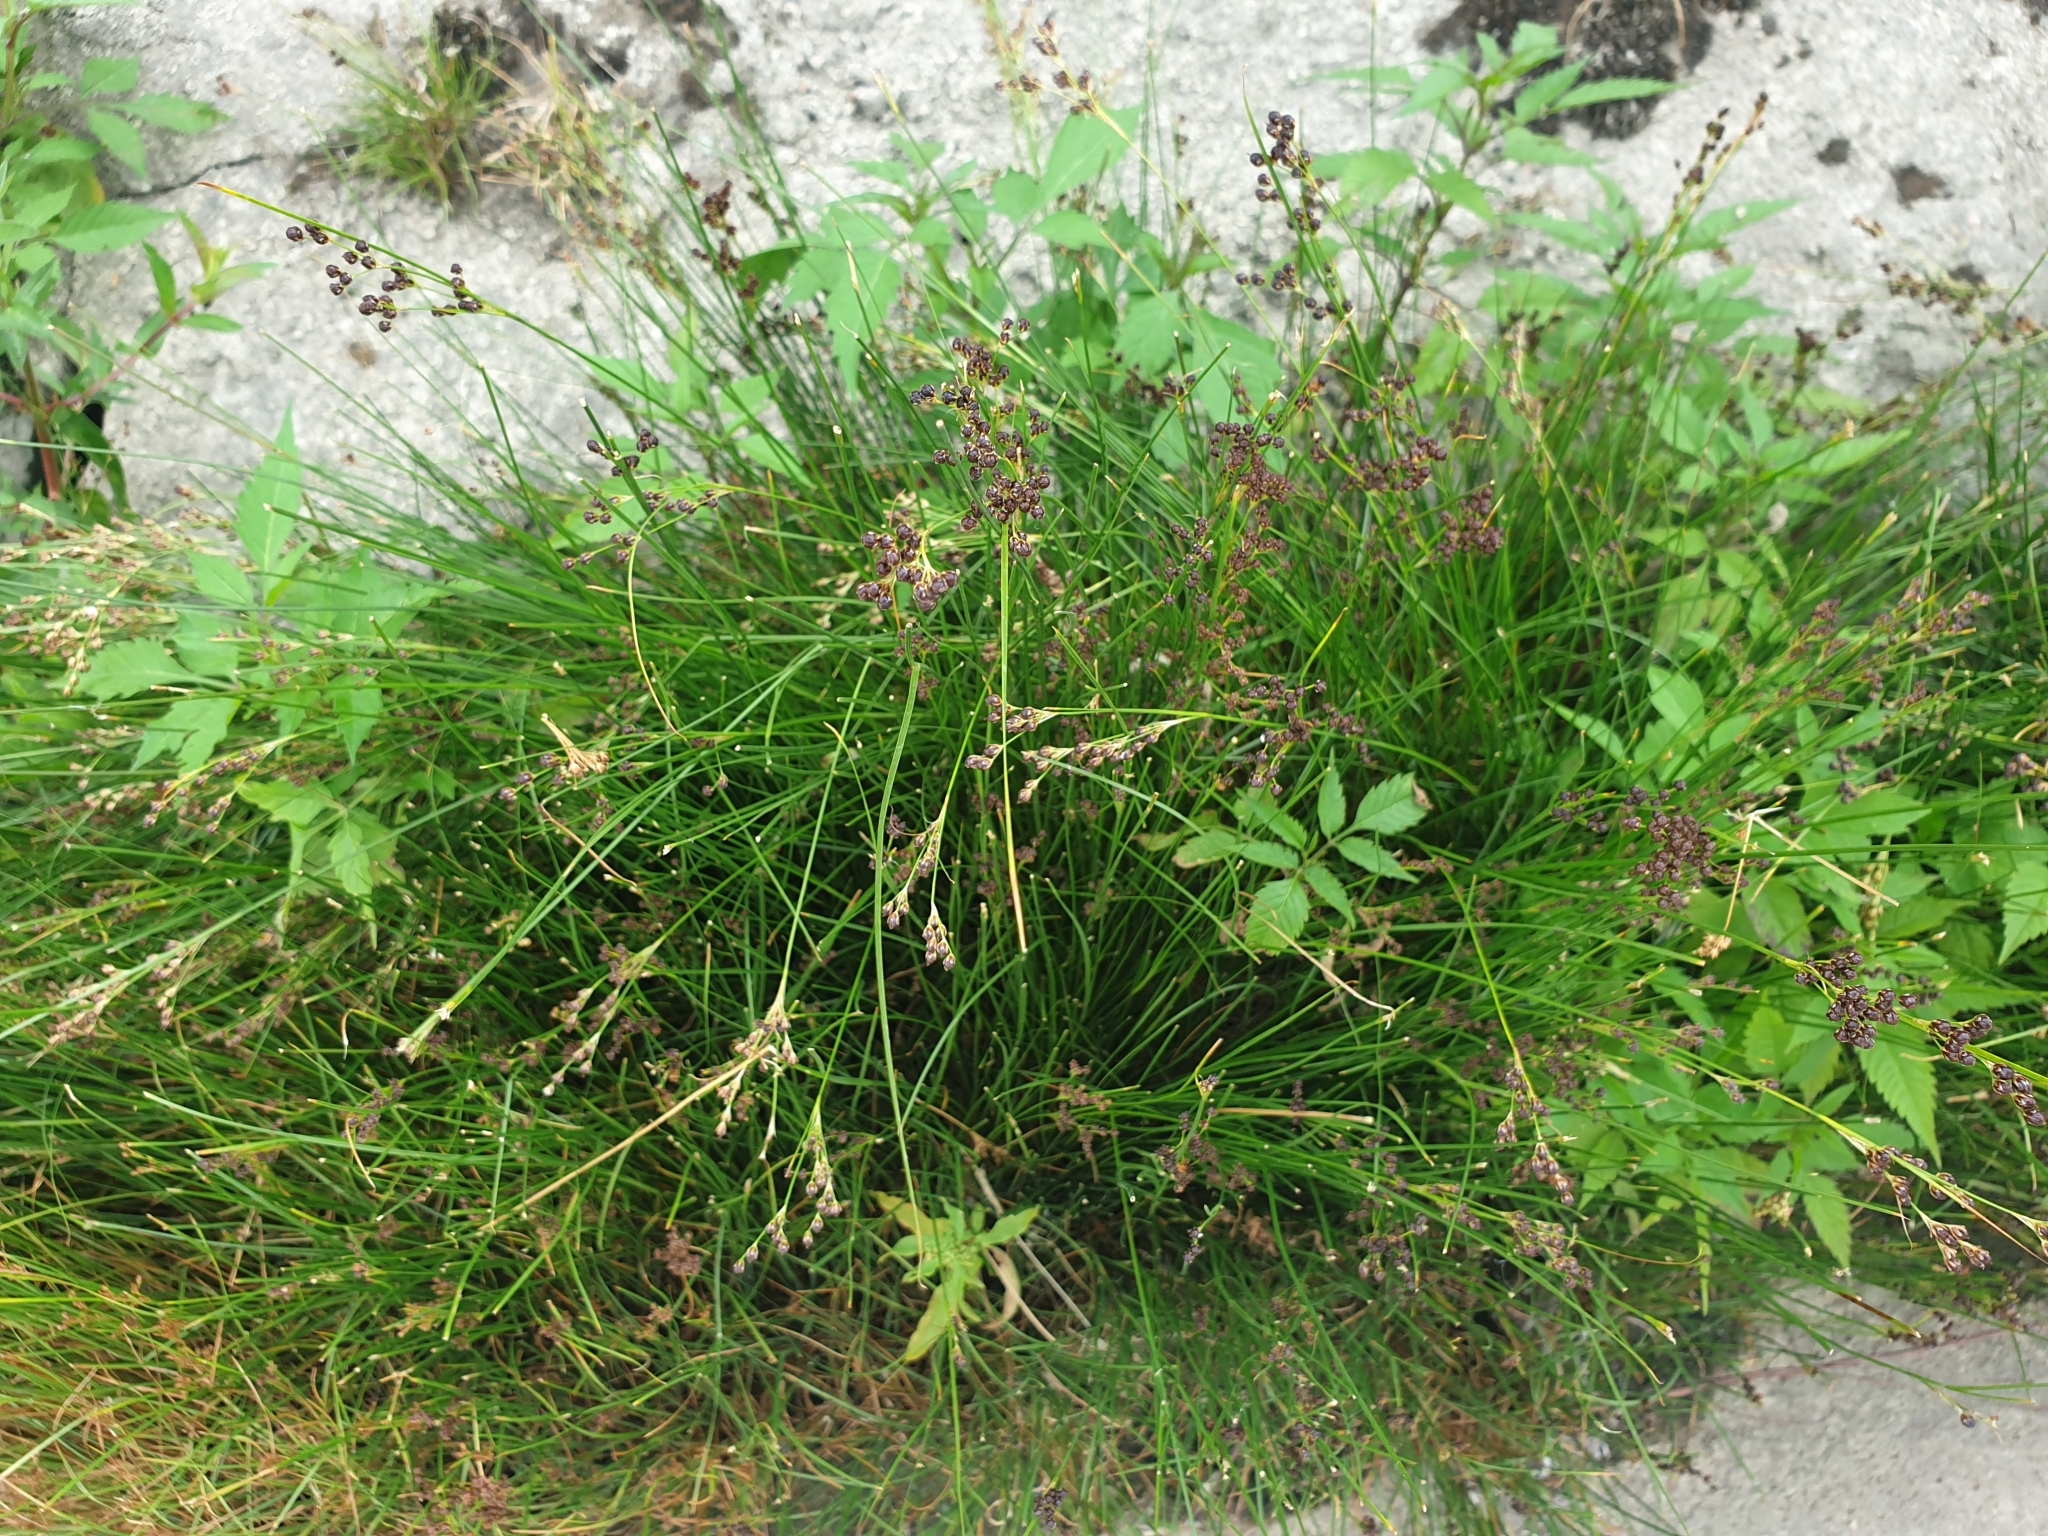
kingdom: Plantae
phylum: Tracheophyta
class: Liliopsida
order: Poales
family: Juncaceae
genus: Juncus
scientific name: Juncus compressus
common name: Round-fruited rush
